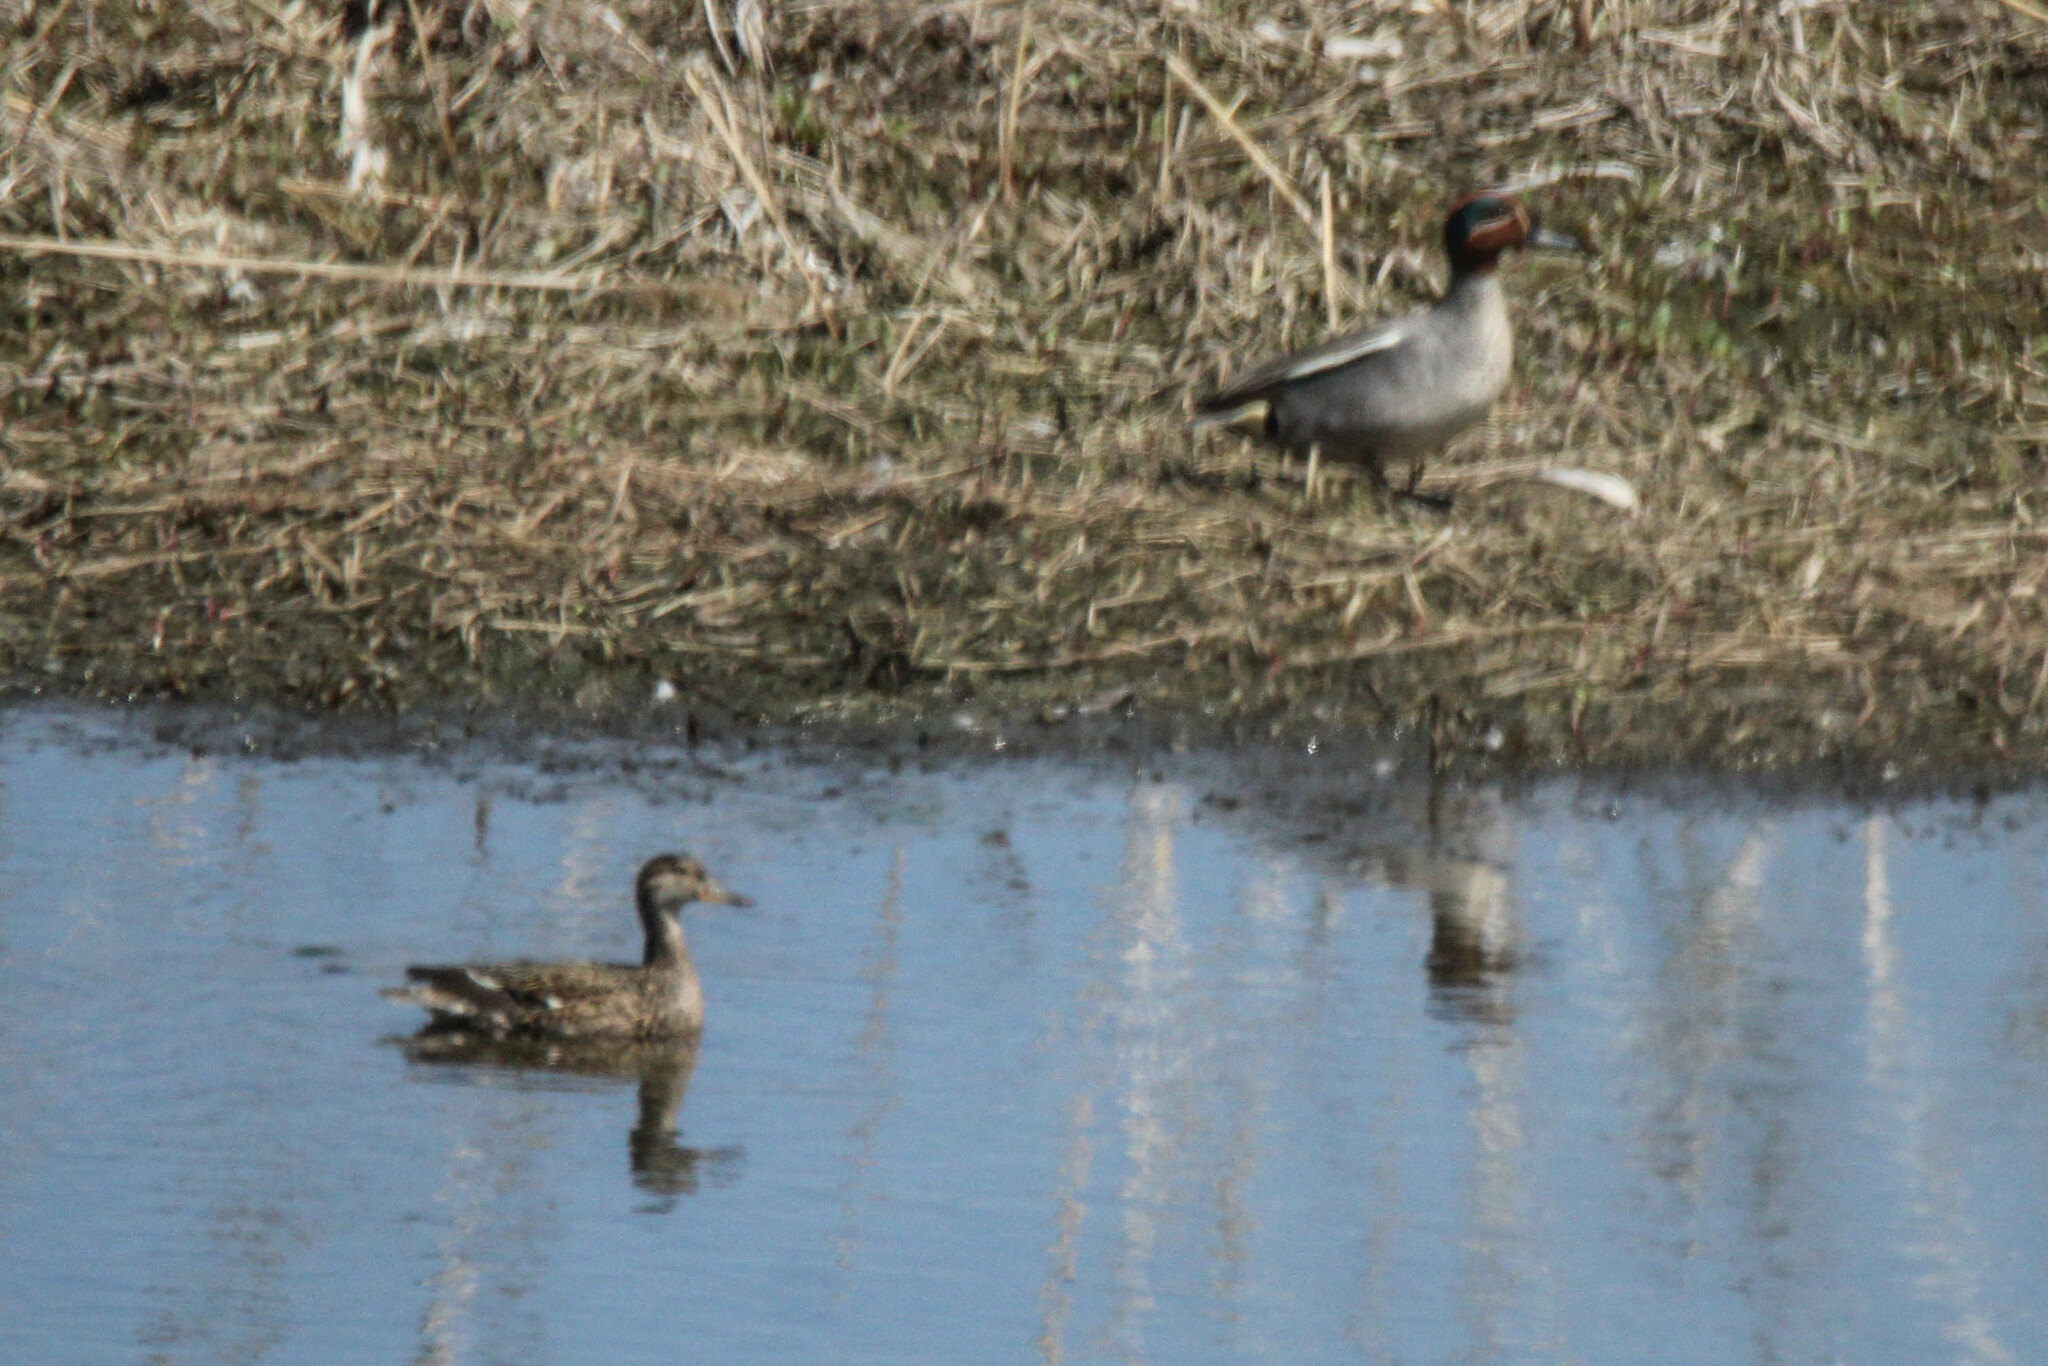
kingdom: Animalia
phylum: Chordata
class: Aves
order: Anseriformes
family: Anatidae
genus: Anas
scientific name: Anas crecca
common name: Eurasian teal
